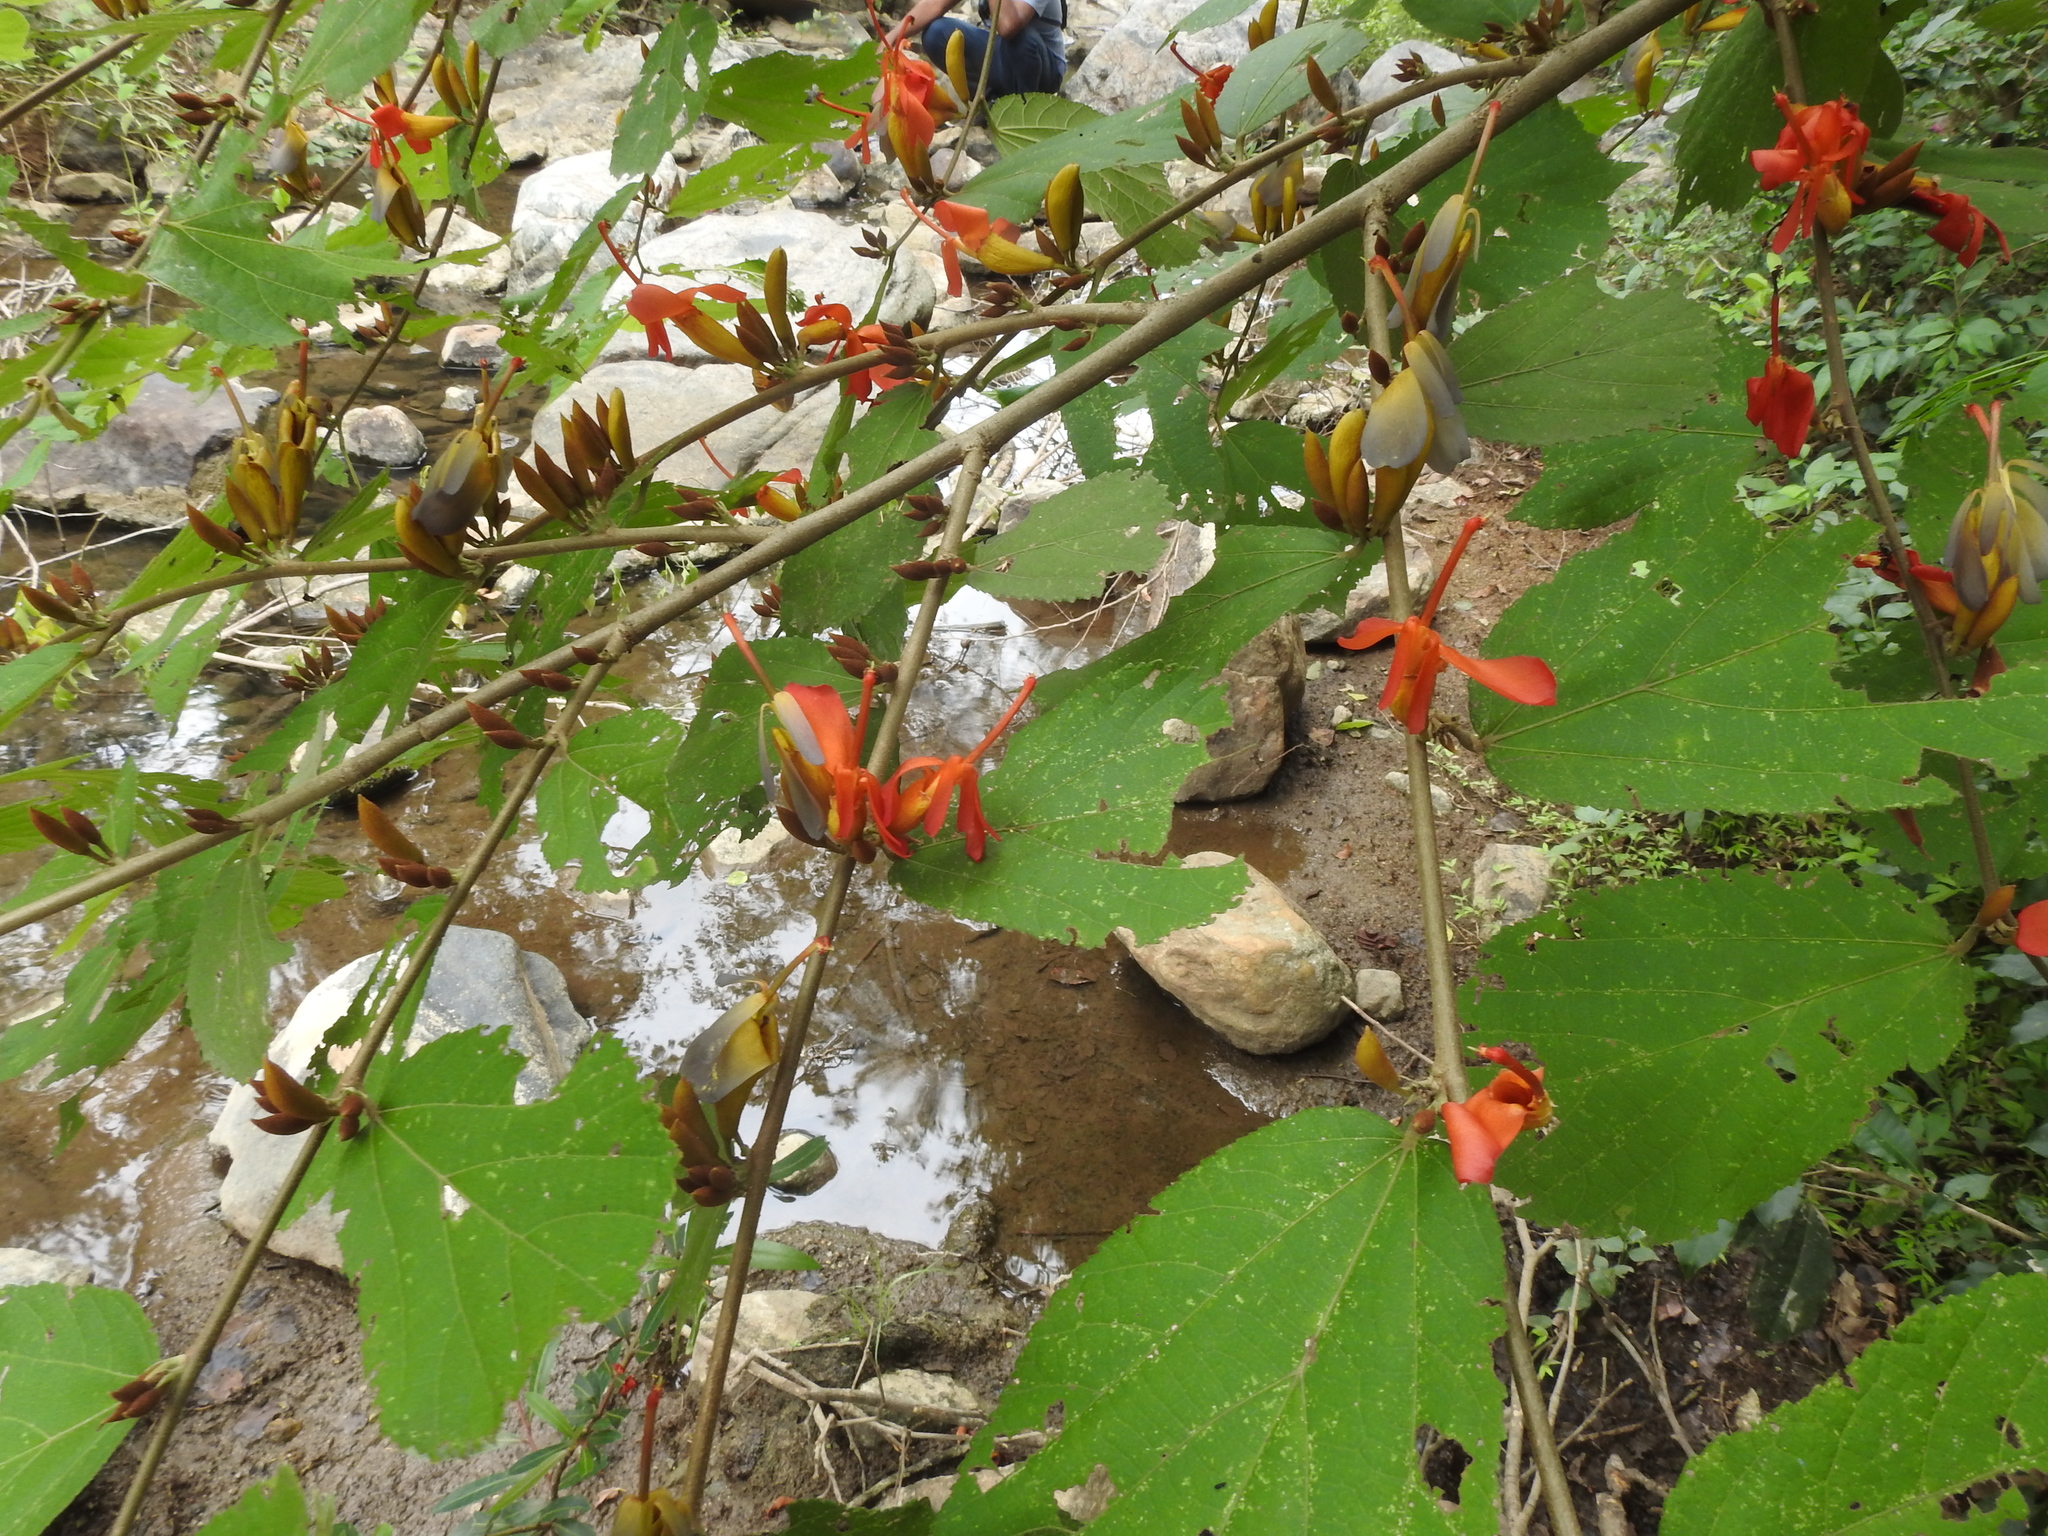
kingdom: Plantae
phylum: Tracheophyta
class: Magnoliopsida
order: Malvales
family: Malvaceae
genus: Helicteres
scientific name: Helicteres isora
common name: East indian screwtree
